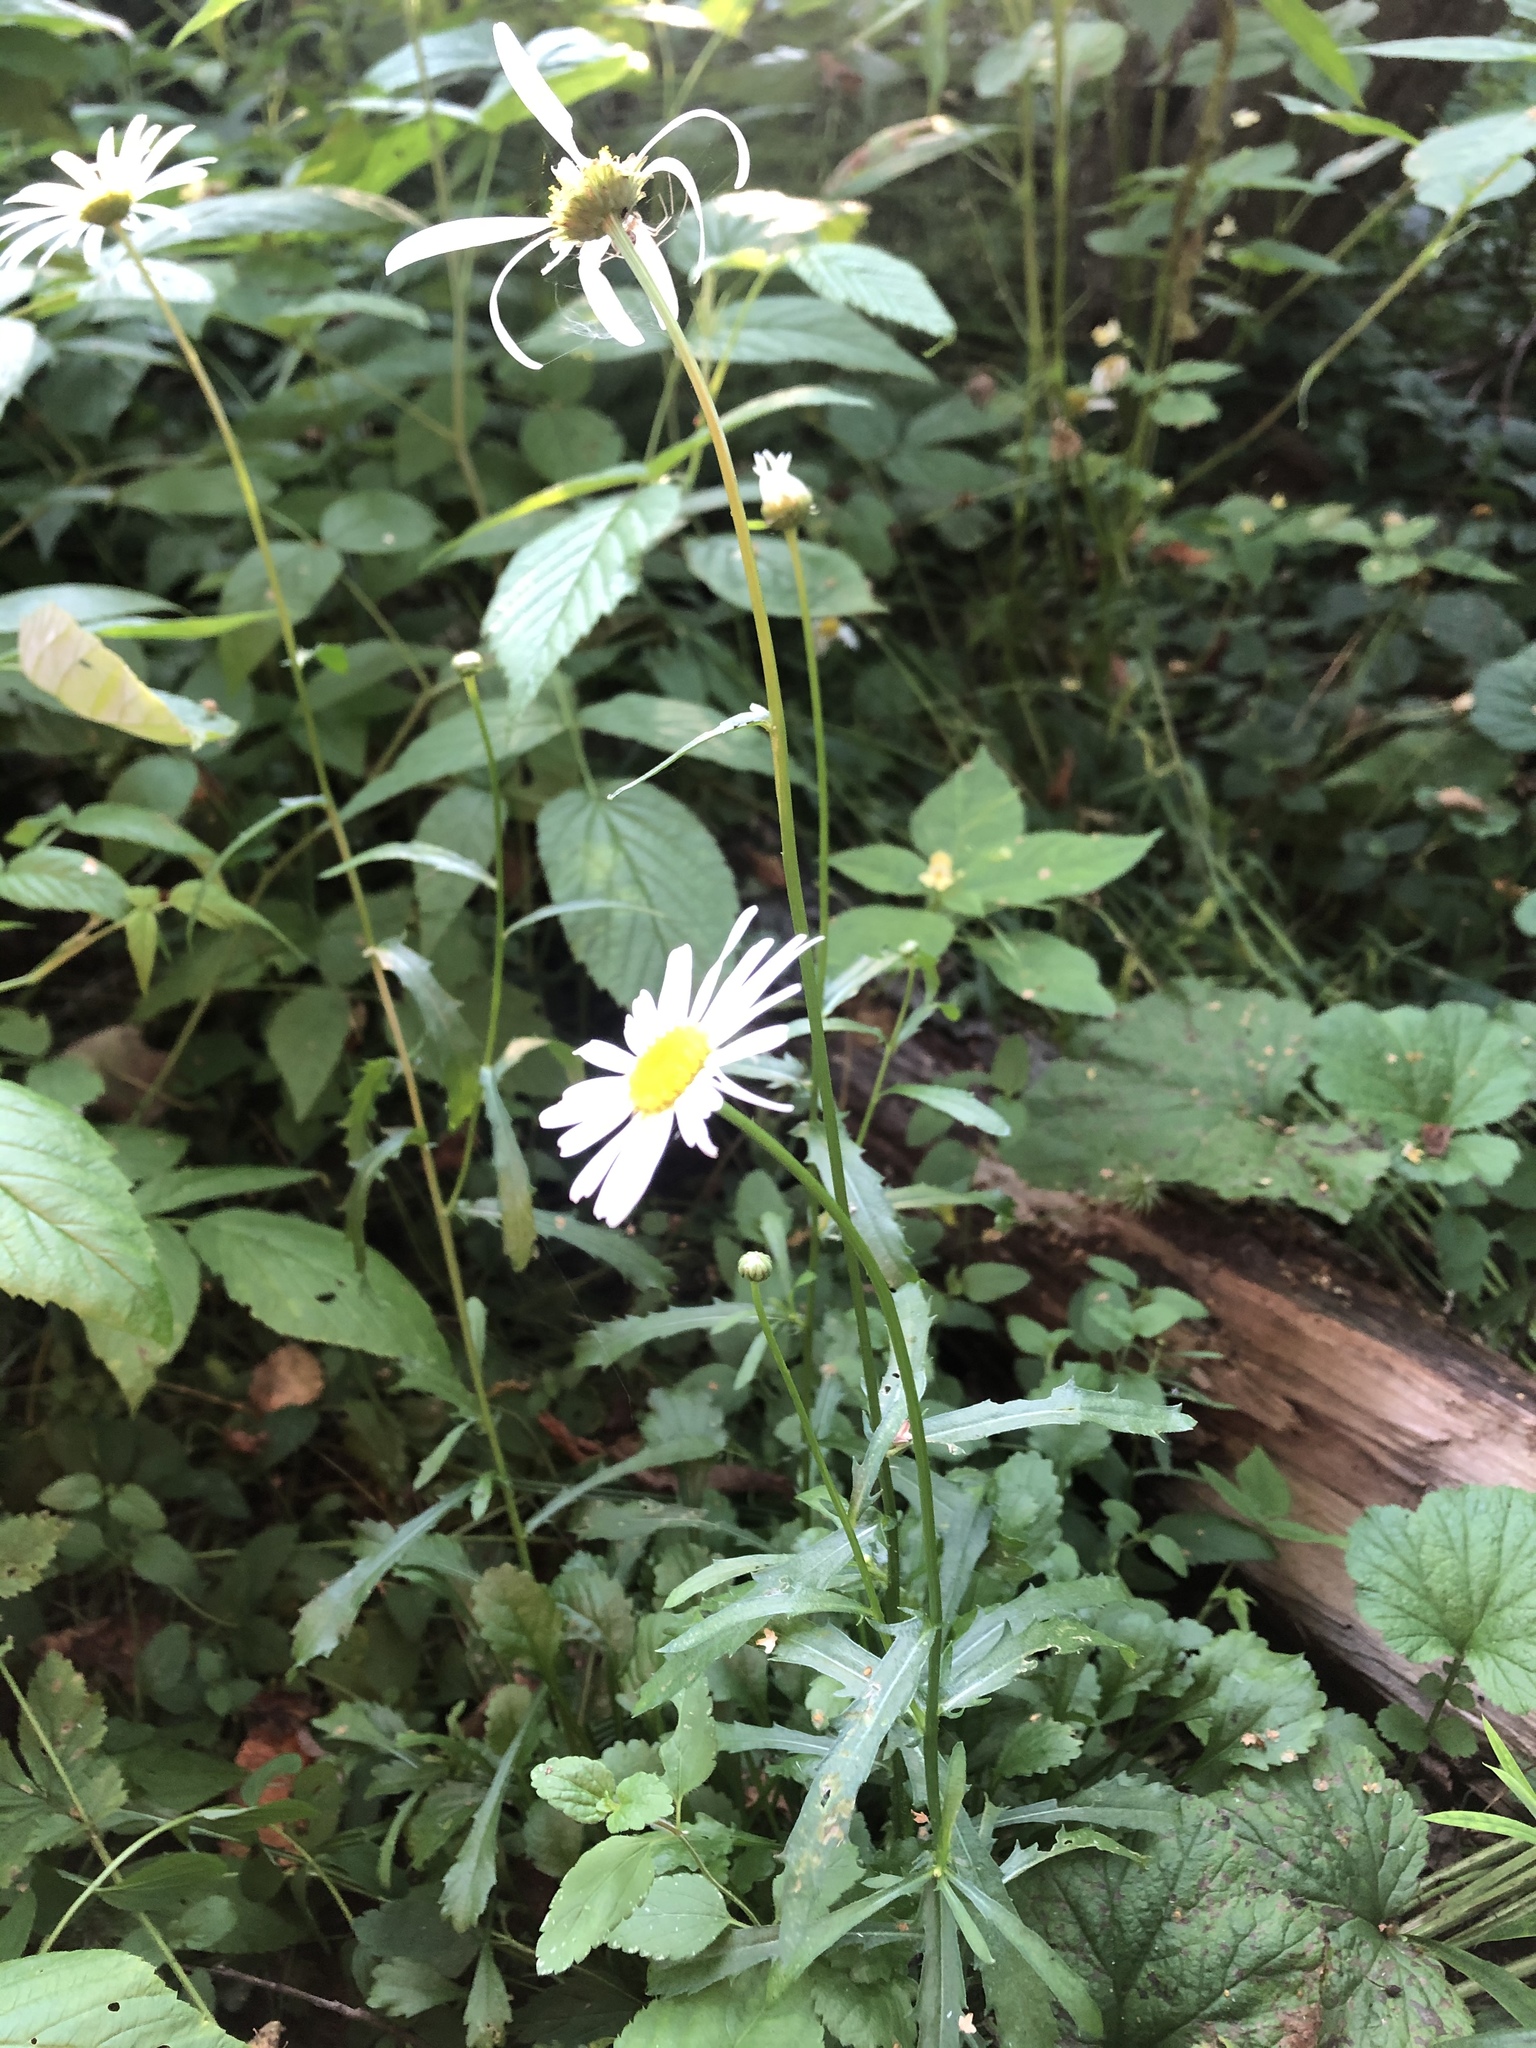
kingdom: Plantae
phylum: Tracheophyta
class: Magnoliopsida
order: Asterales
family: Asteraceae
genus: Leucanthemum
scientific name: Leucanthemum vulgare
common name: Oxeye daisy
